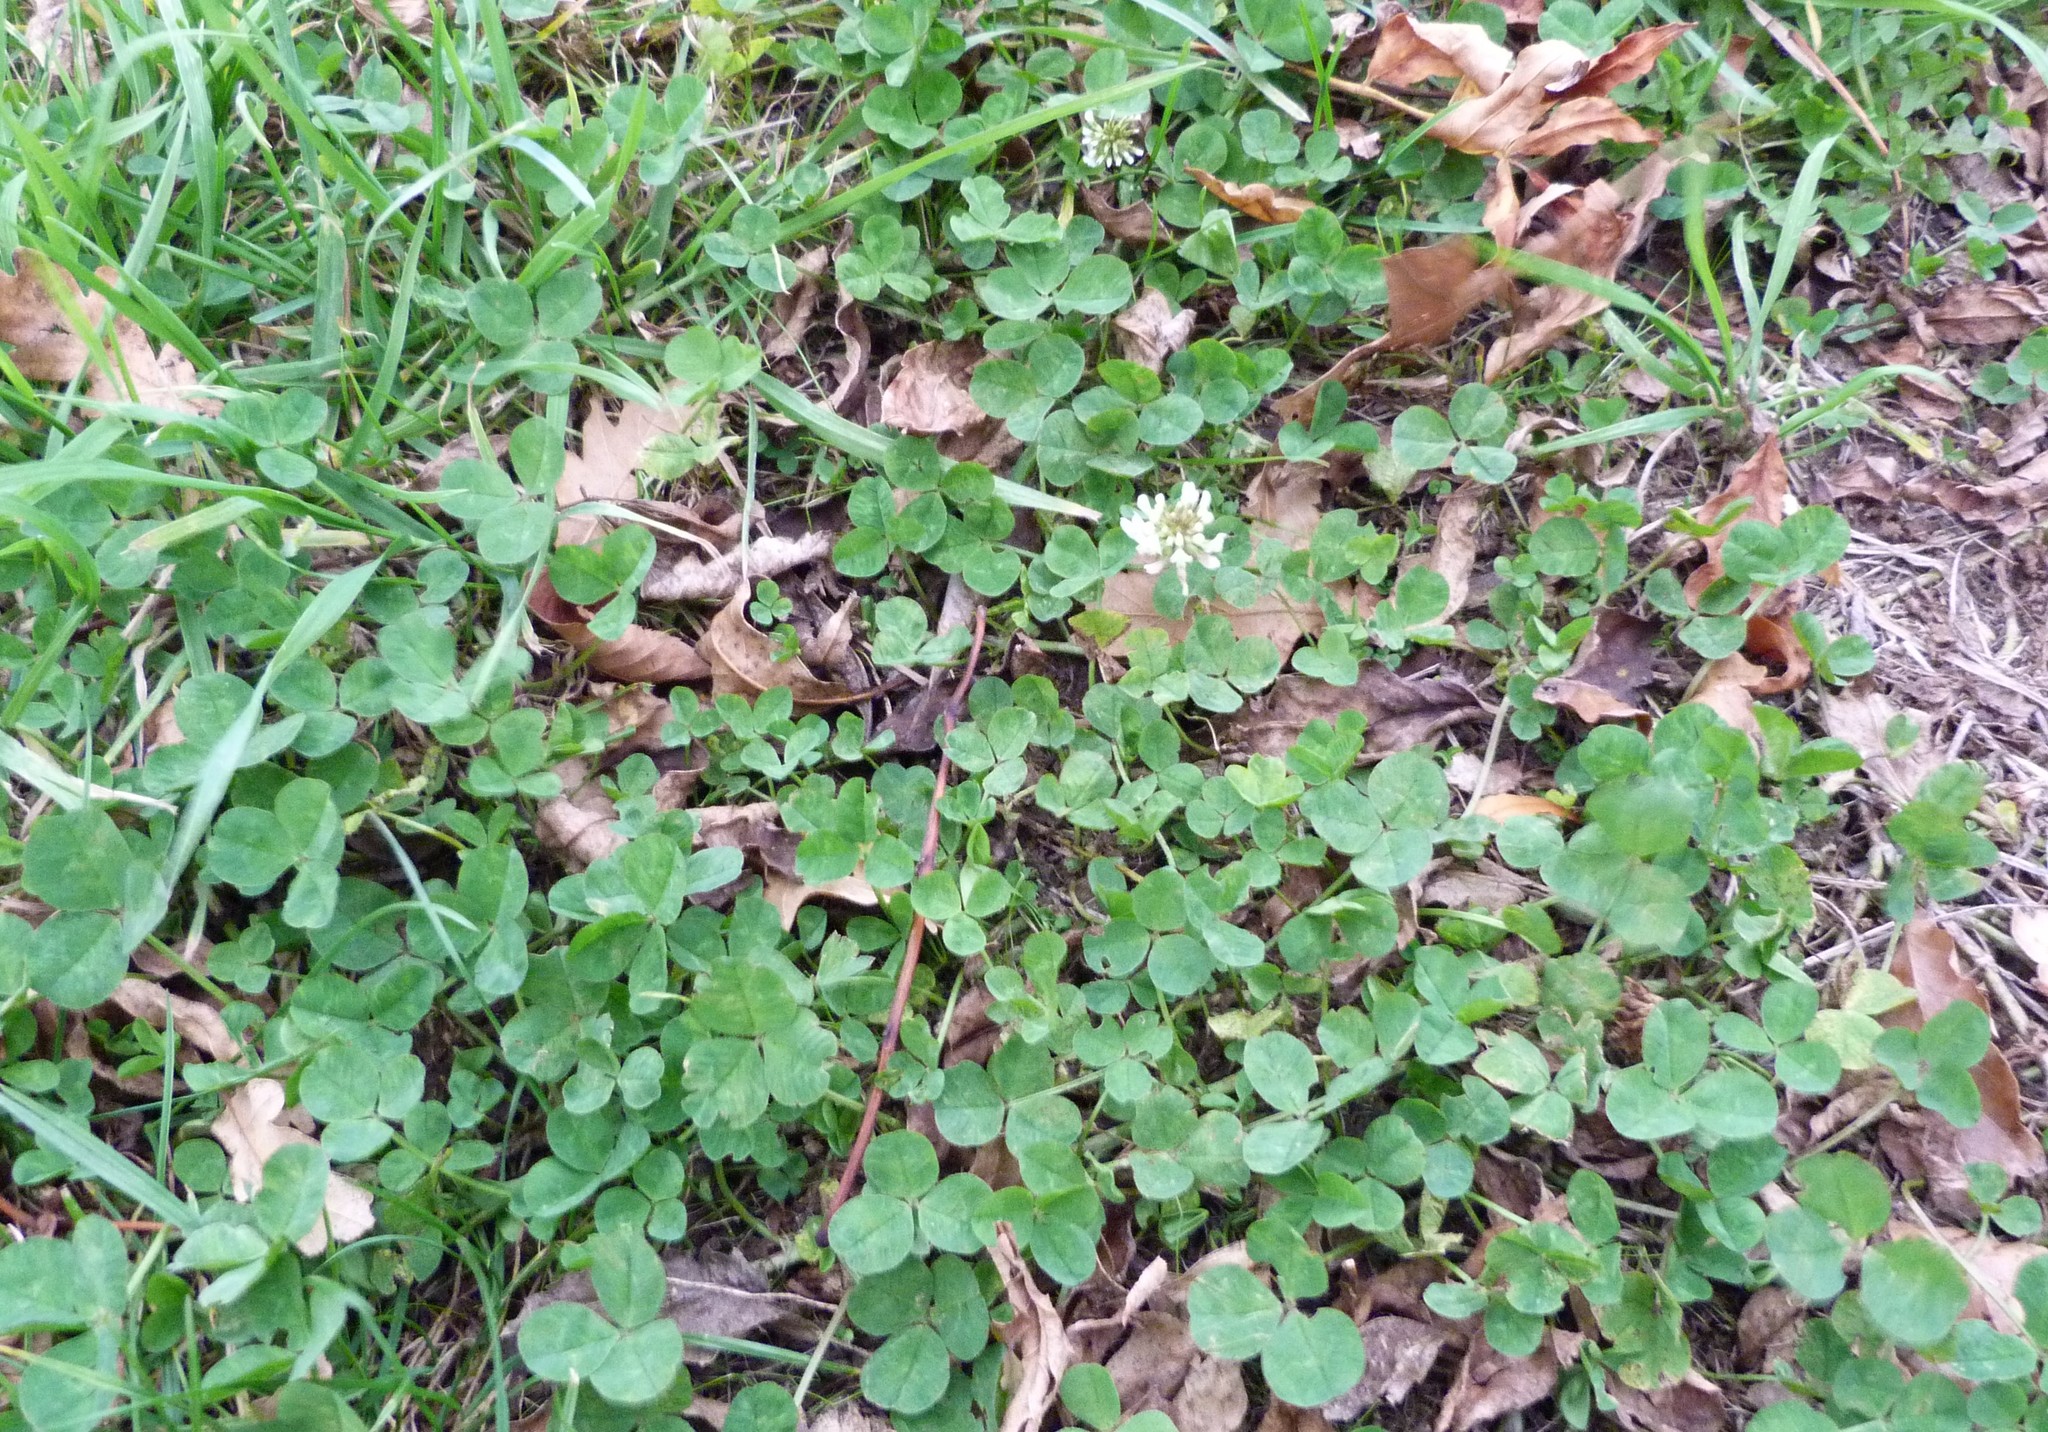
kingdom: Plantae
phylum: Tracheophyta
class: Magnoliopsida
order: Fabales
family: Fabaceae
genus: Trifolium
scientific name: Trifolium repens
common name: White clover
